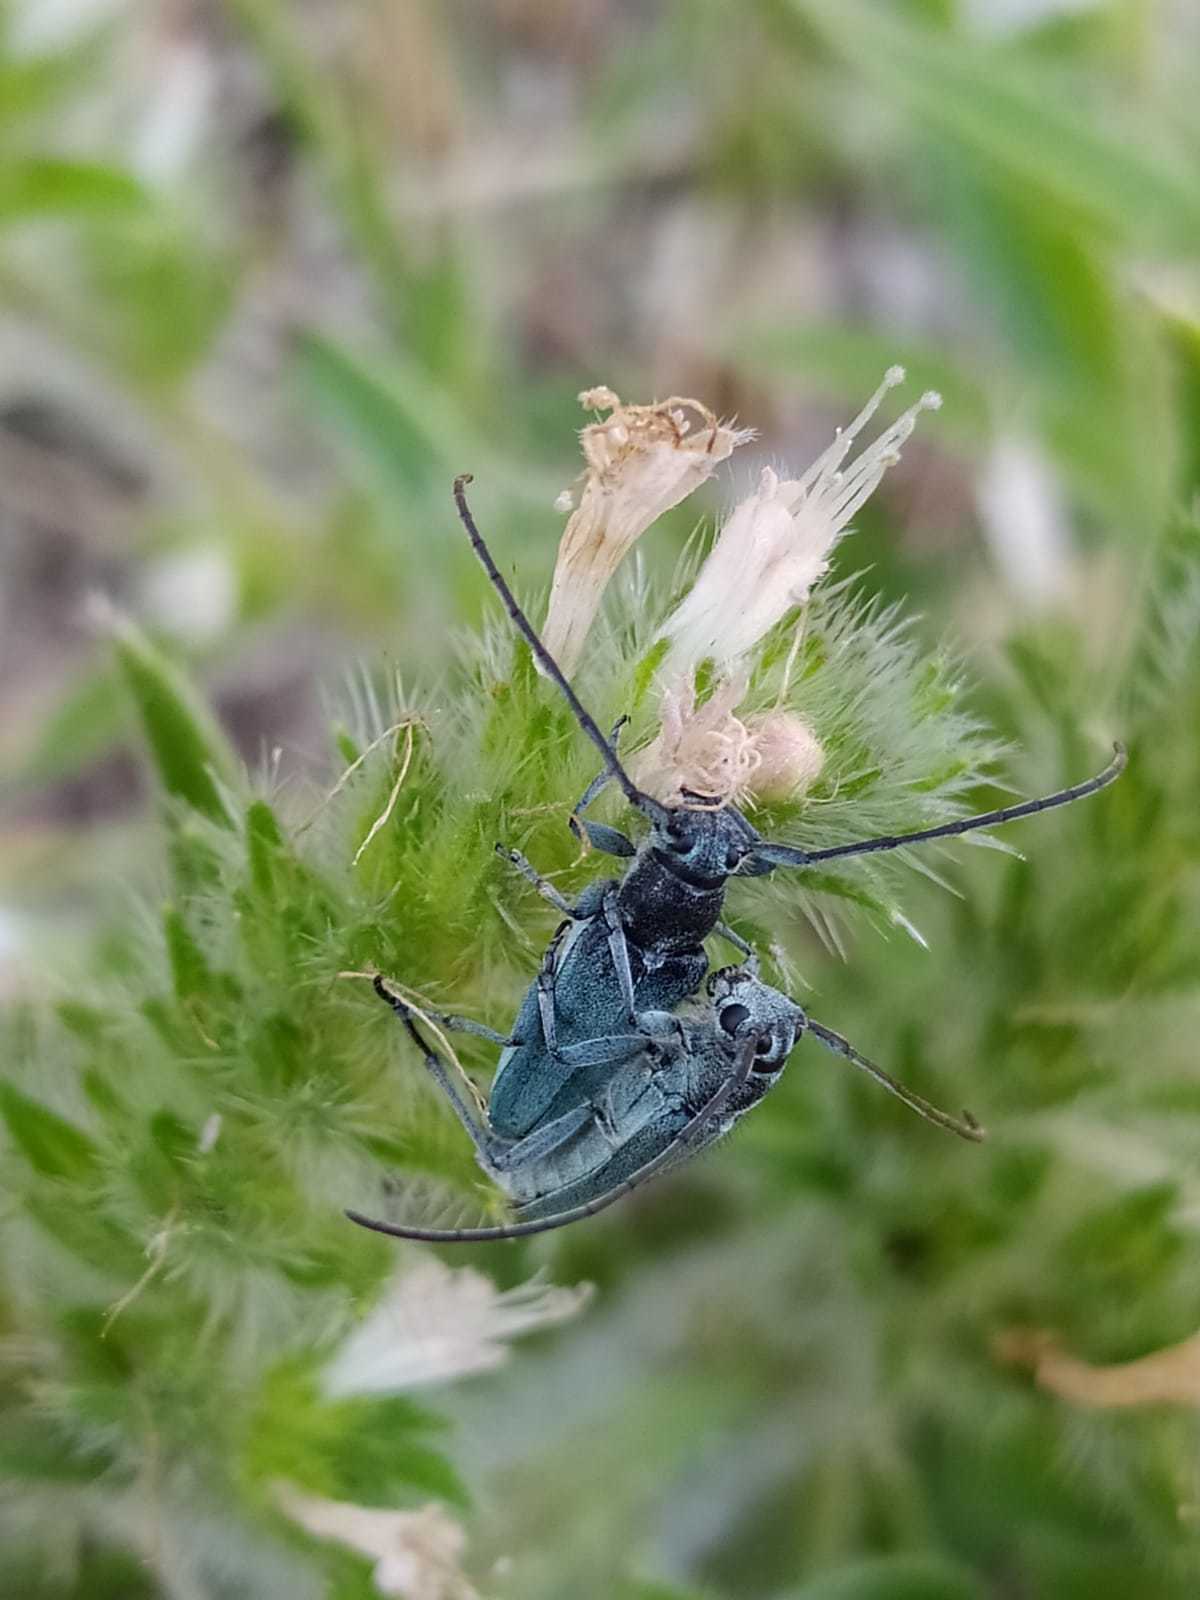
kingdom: Animalia
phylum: Arthropoda
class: Insecta
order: Coleoptera
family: Cerambycidae
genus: Phytoecia
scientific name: Phytoecia coerulescens
